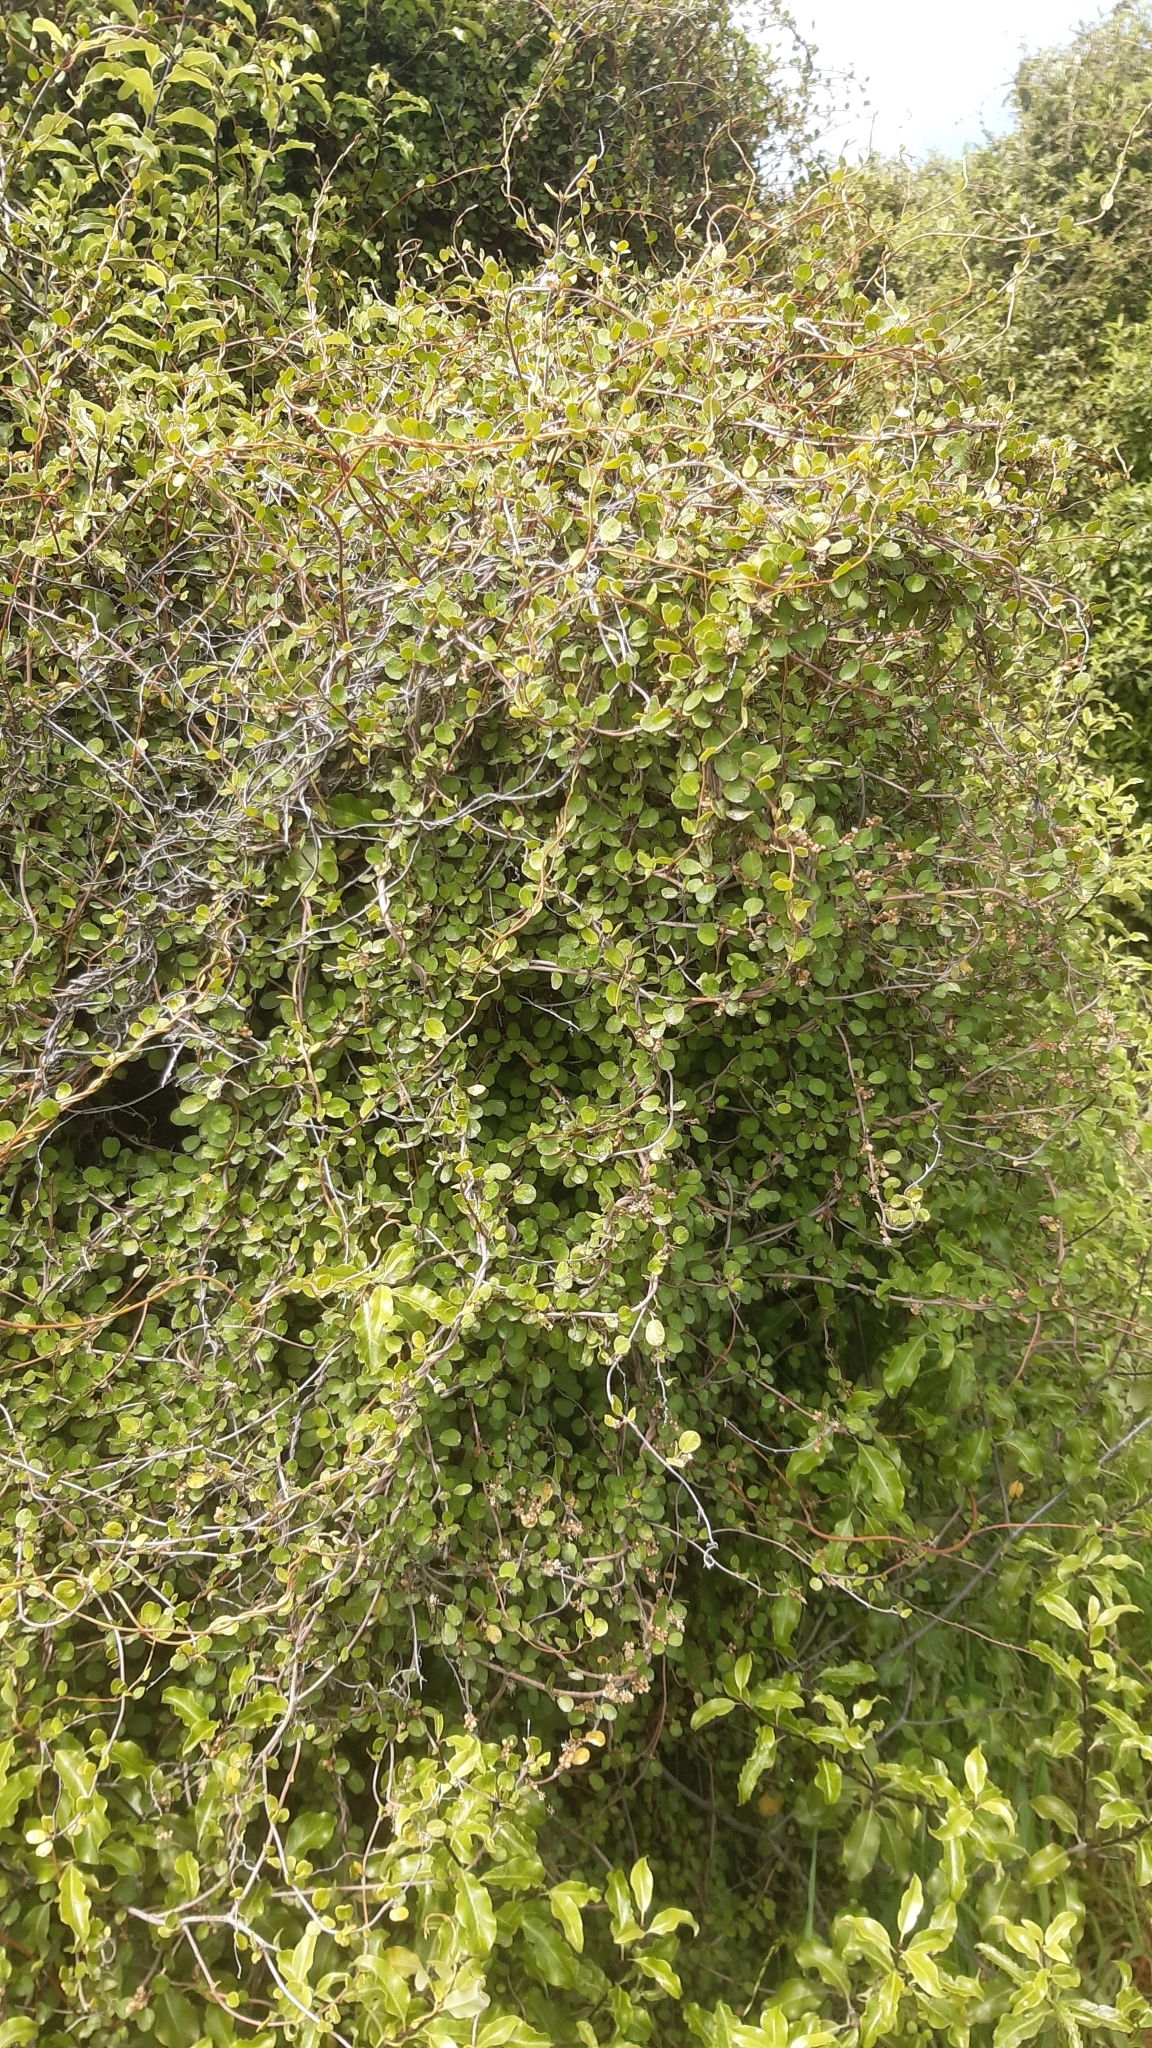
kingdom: Plantae
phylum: Tracheophyta
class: Magnoliopsida
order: Caryophyllales
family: Polygonaceae
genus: Muehlenbeckia
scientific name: Muehlenbeckia complexa
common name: Wireplant
